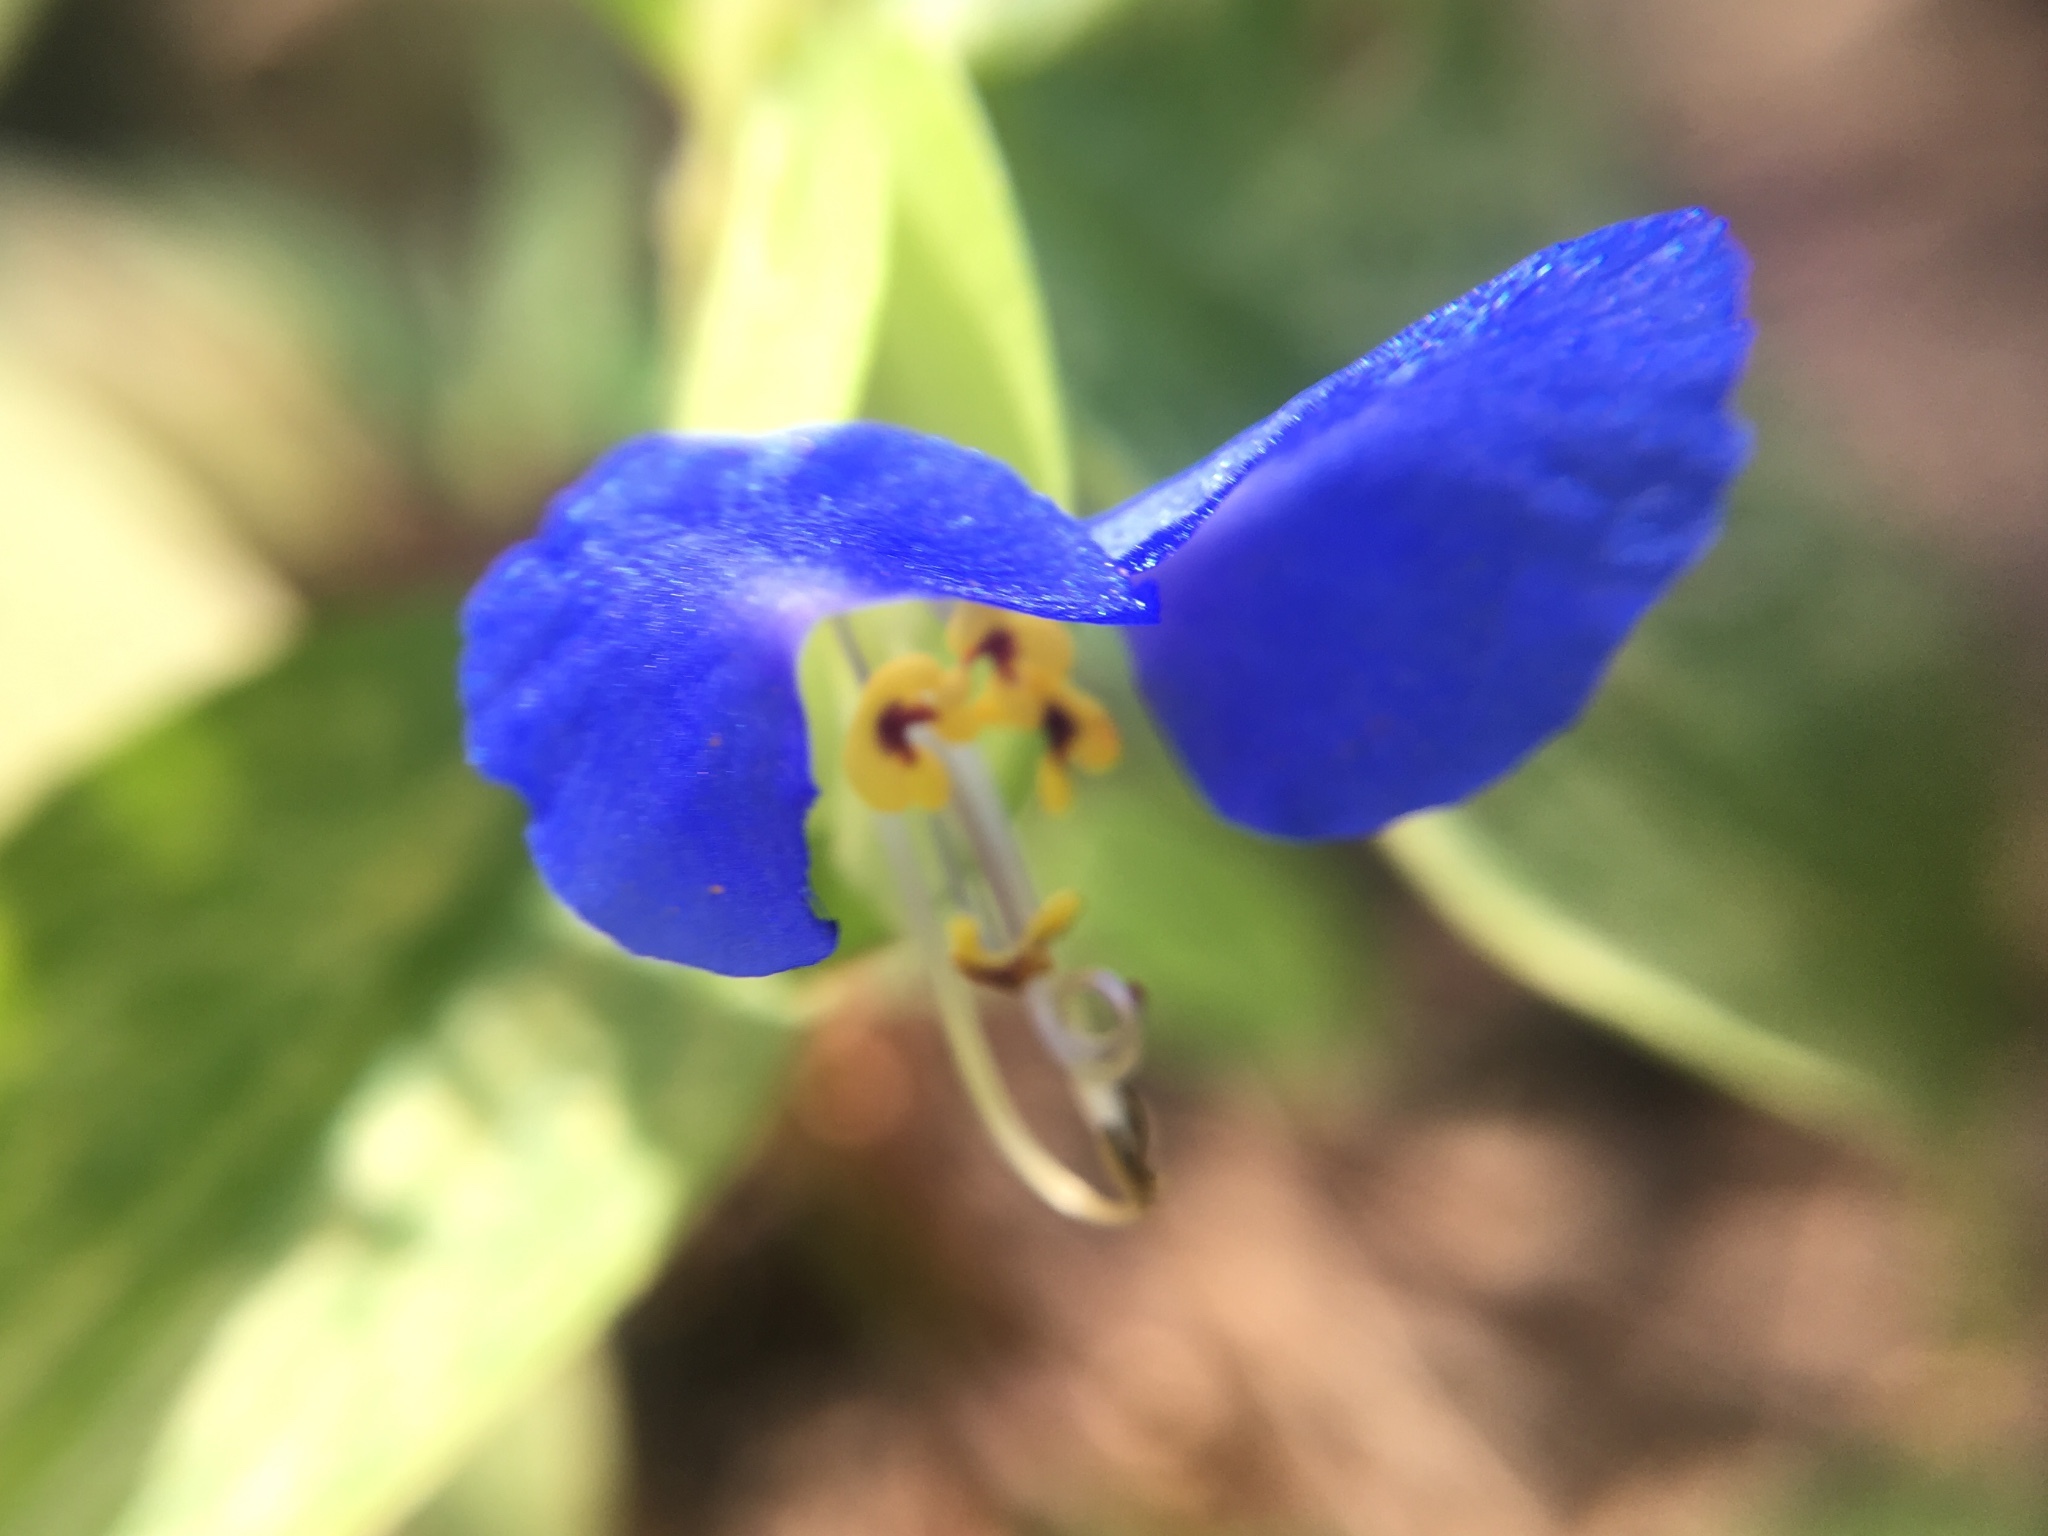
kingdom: Plantae
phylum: Tracheophyta
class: Liliopsida
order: Commelinales
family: Commelinaceae
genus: Commelina
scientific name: Commelina communis
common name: Asiatic dayflower
